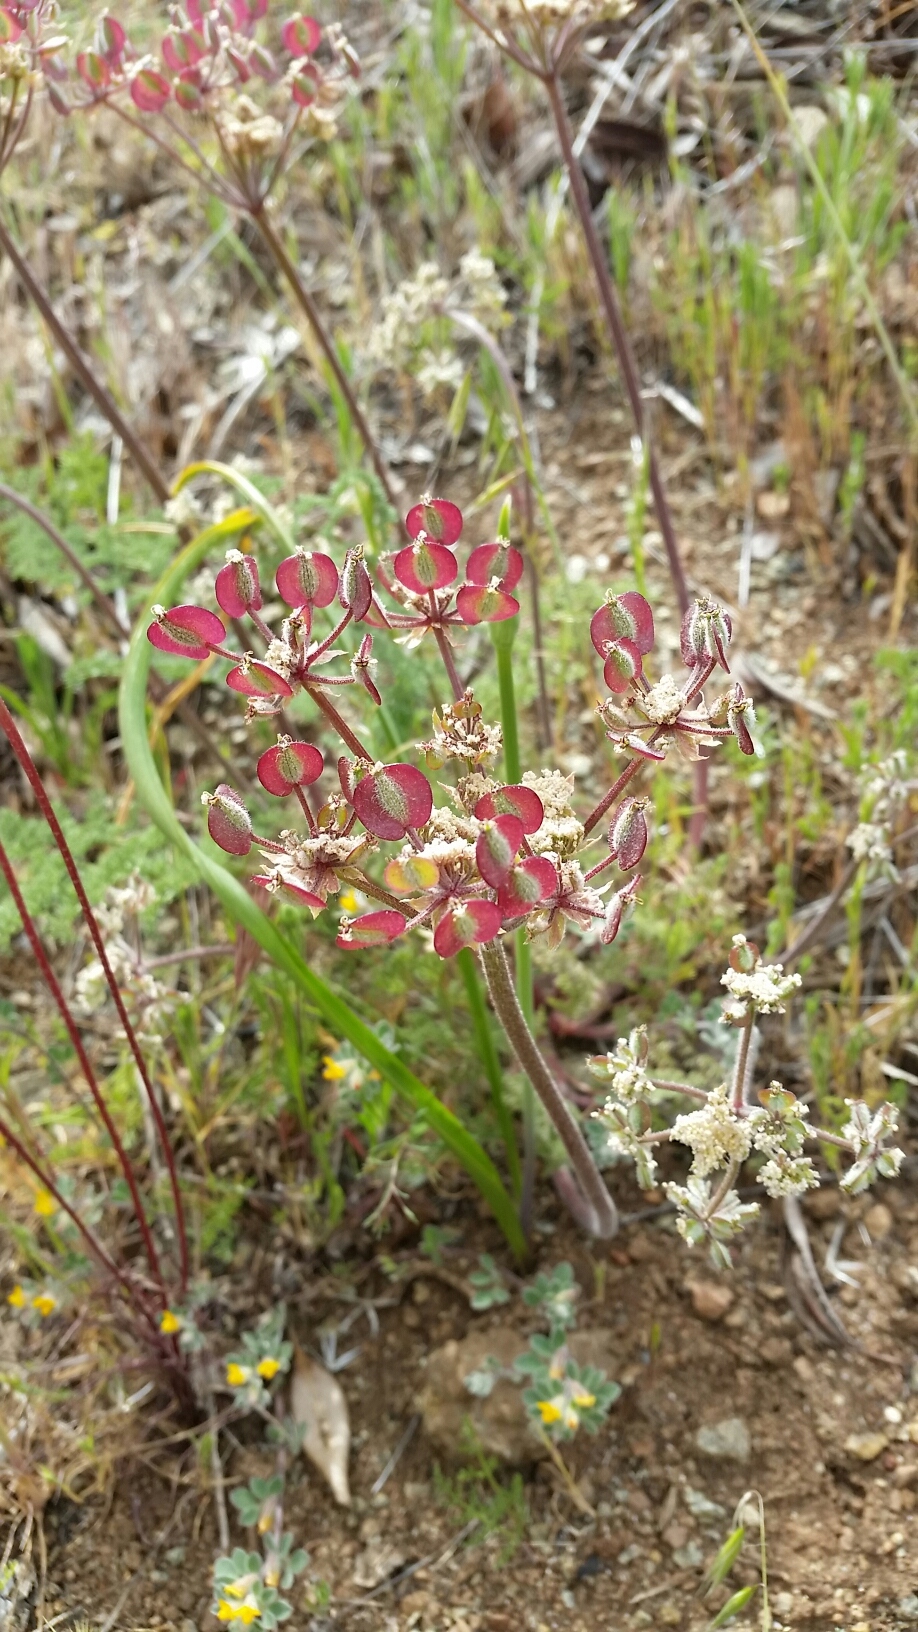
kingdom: Plantae
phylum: Tracheophyta
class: Magnoliopsida
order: Apiales
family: Apiaceae
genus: Lomatium
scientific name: Lomatium dasycarpum
